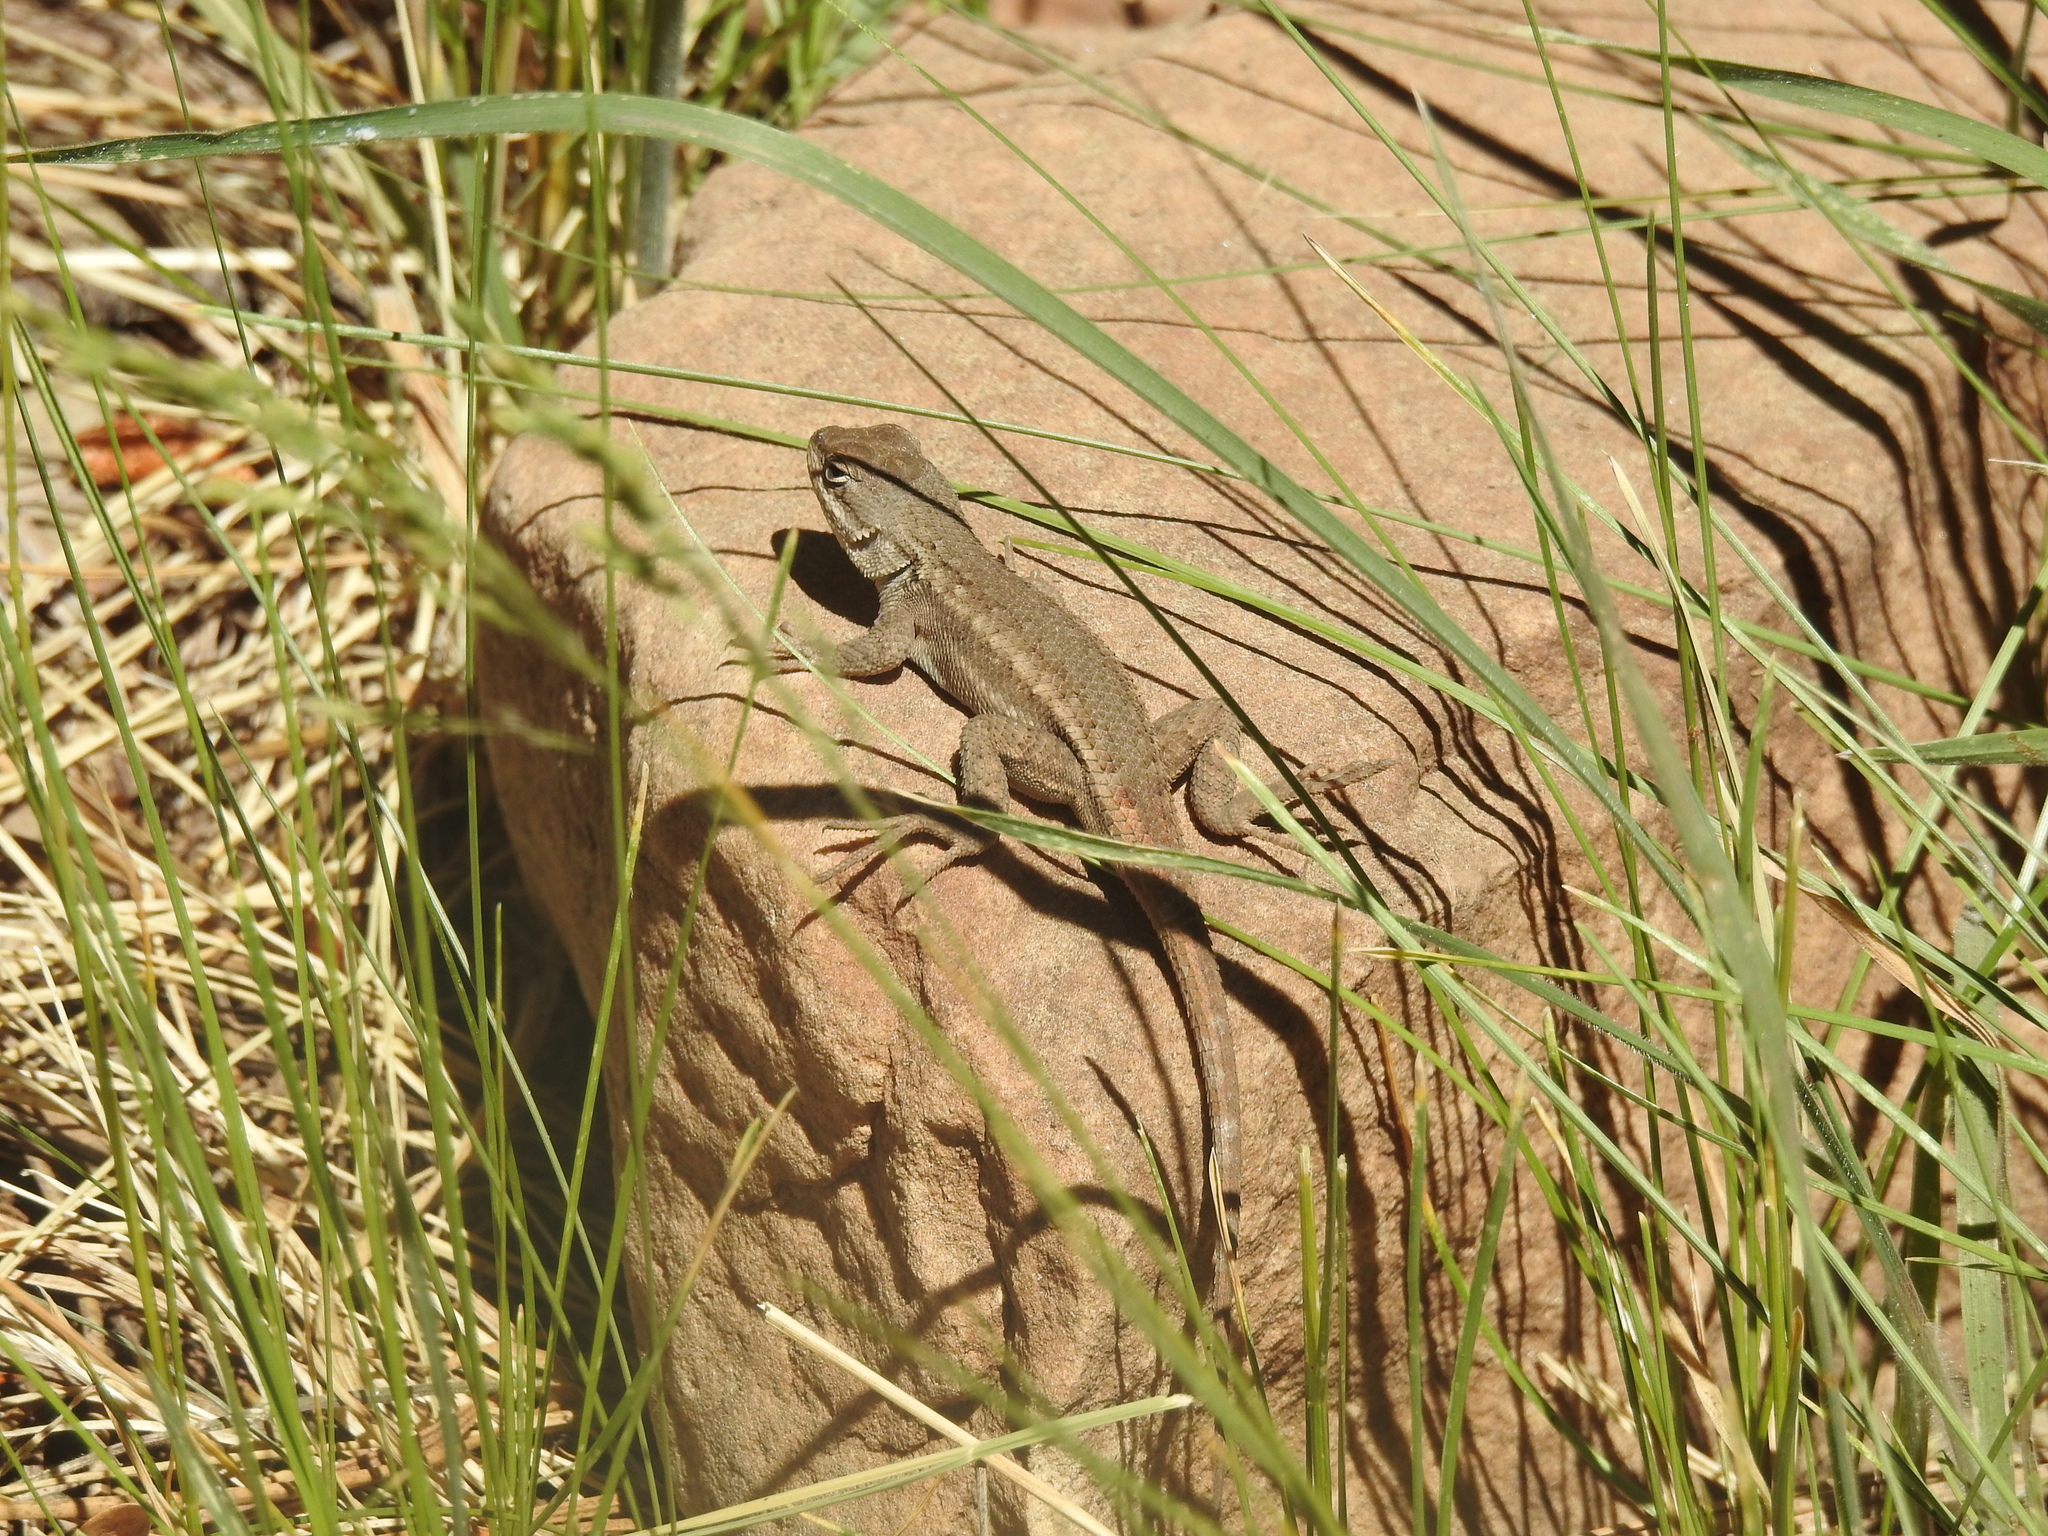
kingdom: Animalia
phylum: Chordata
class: Squamata
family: Phrynosomatidae
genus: Sceloporus
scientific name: Sceloporus tristichus
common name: Plateau fence lizard
